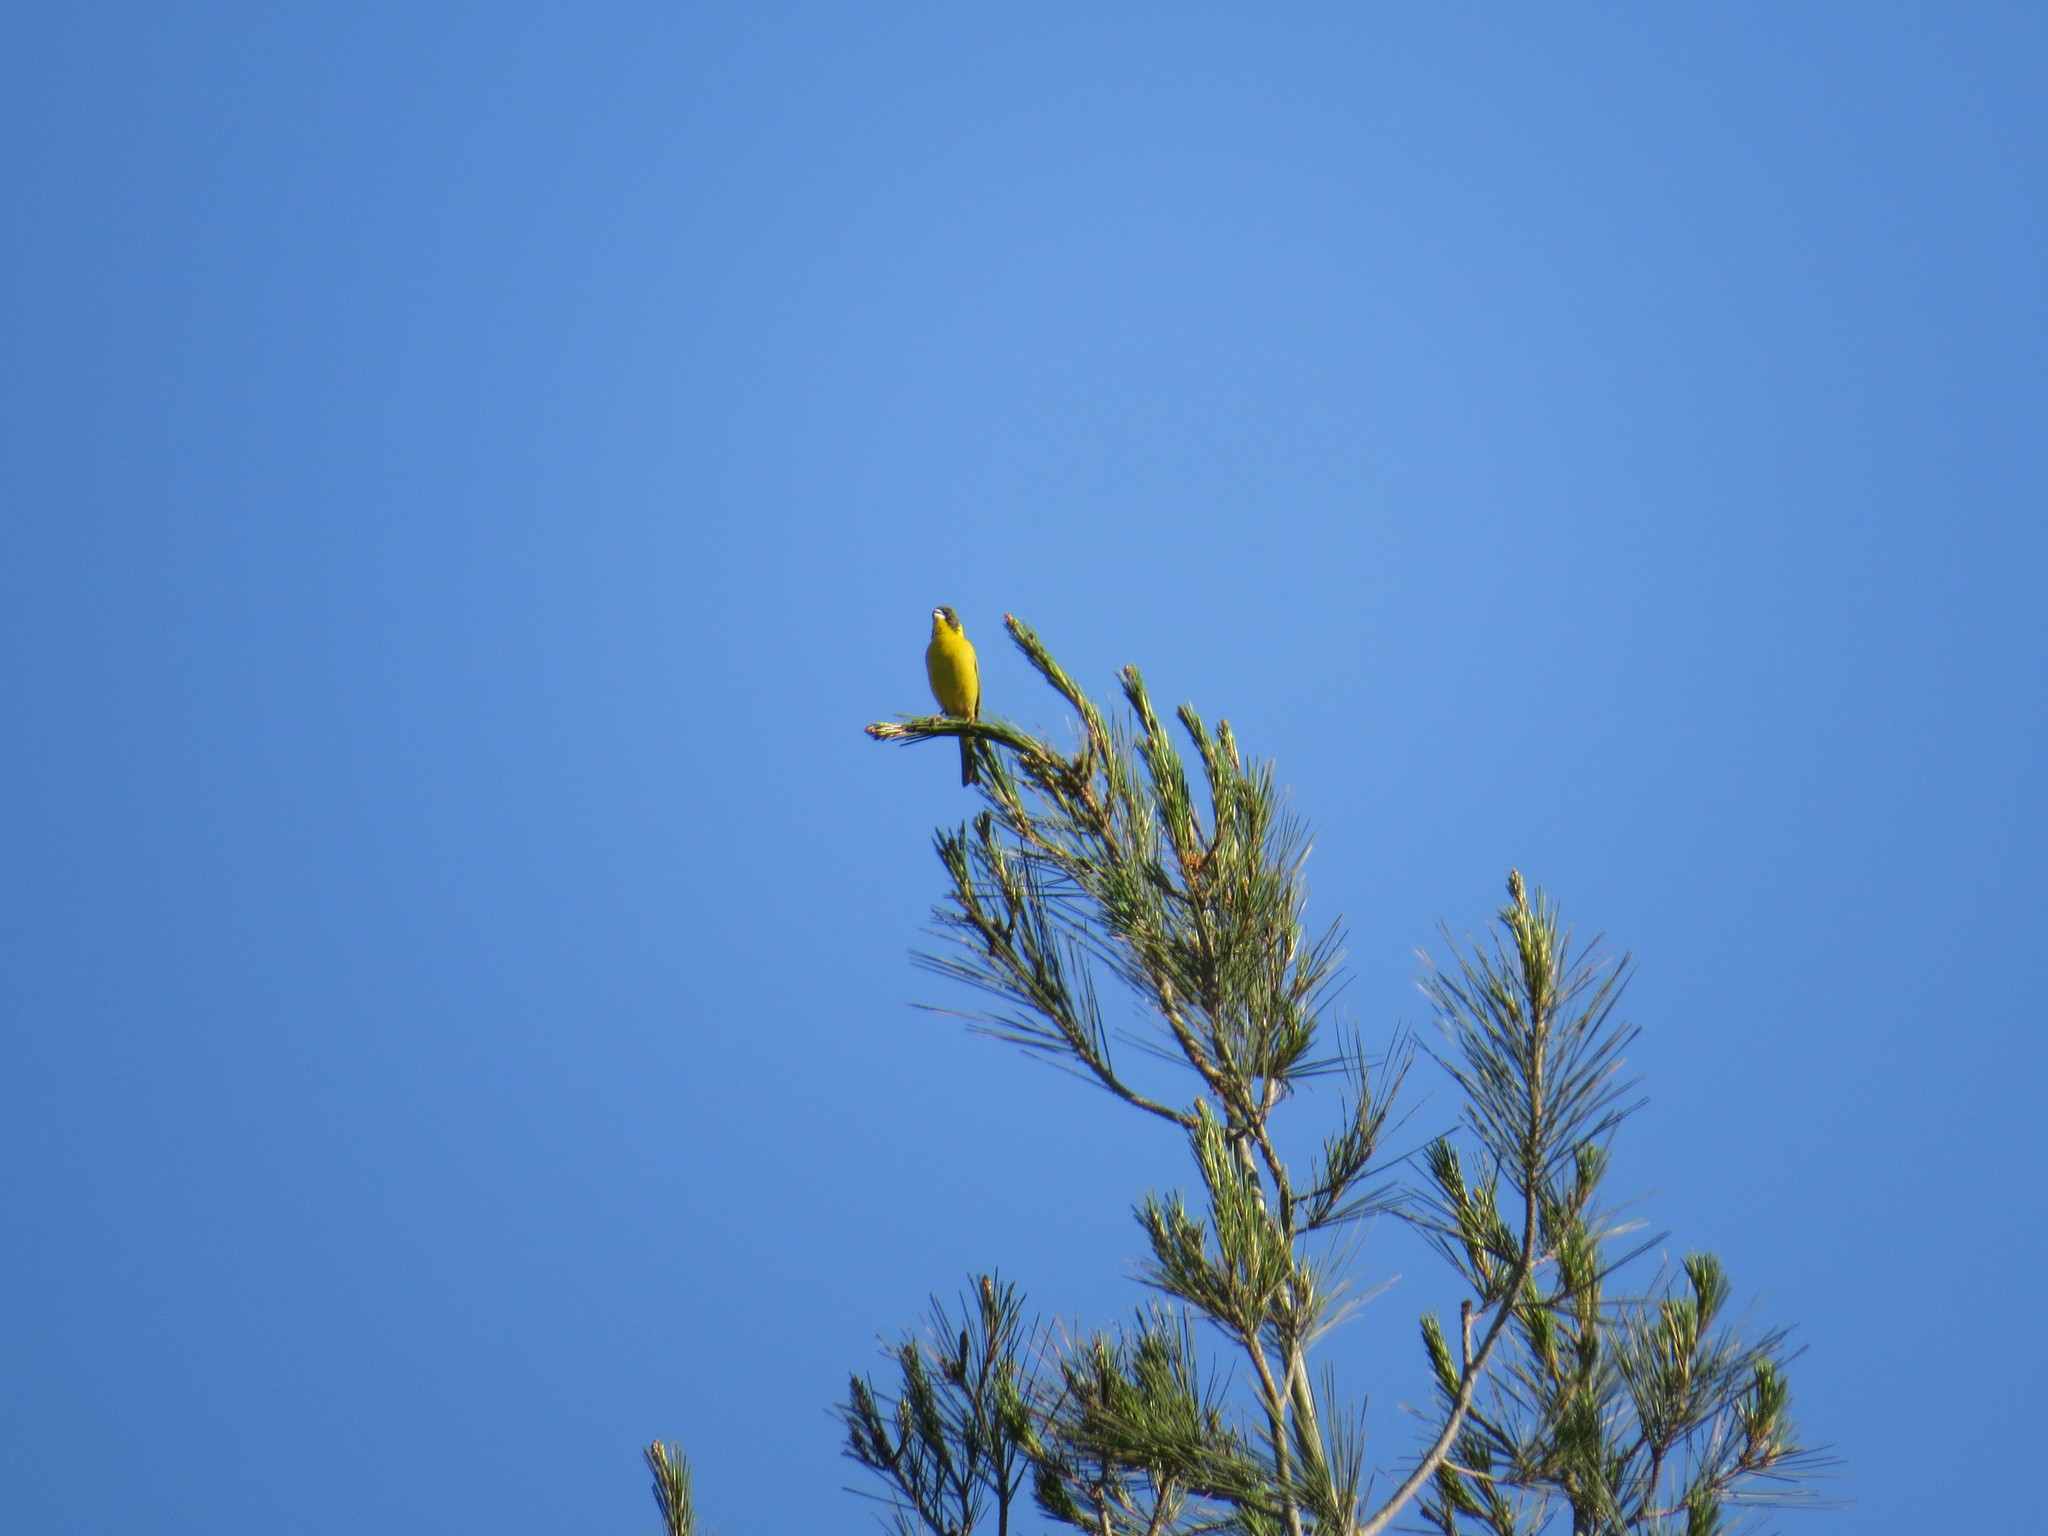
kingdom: Animalia
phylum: Chordata
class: Aves
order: Passeriformes
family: Emberizidae
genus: Emberiza
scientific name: Emberiza melanocephala
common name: Black-headed bunting
